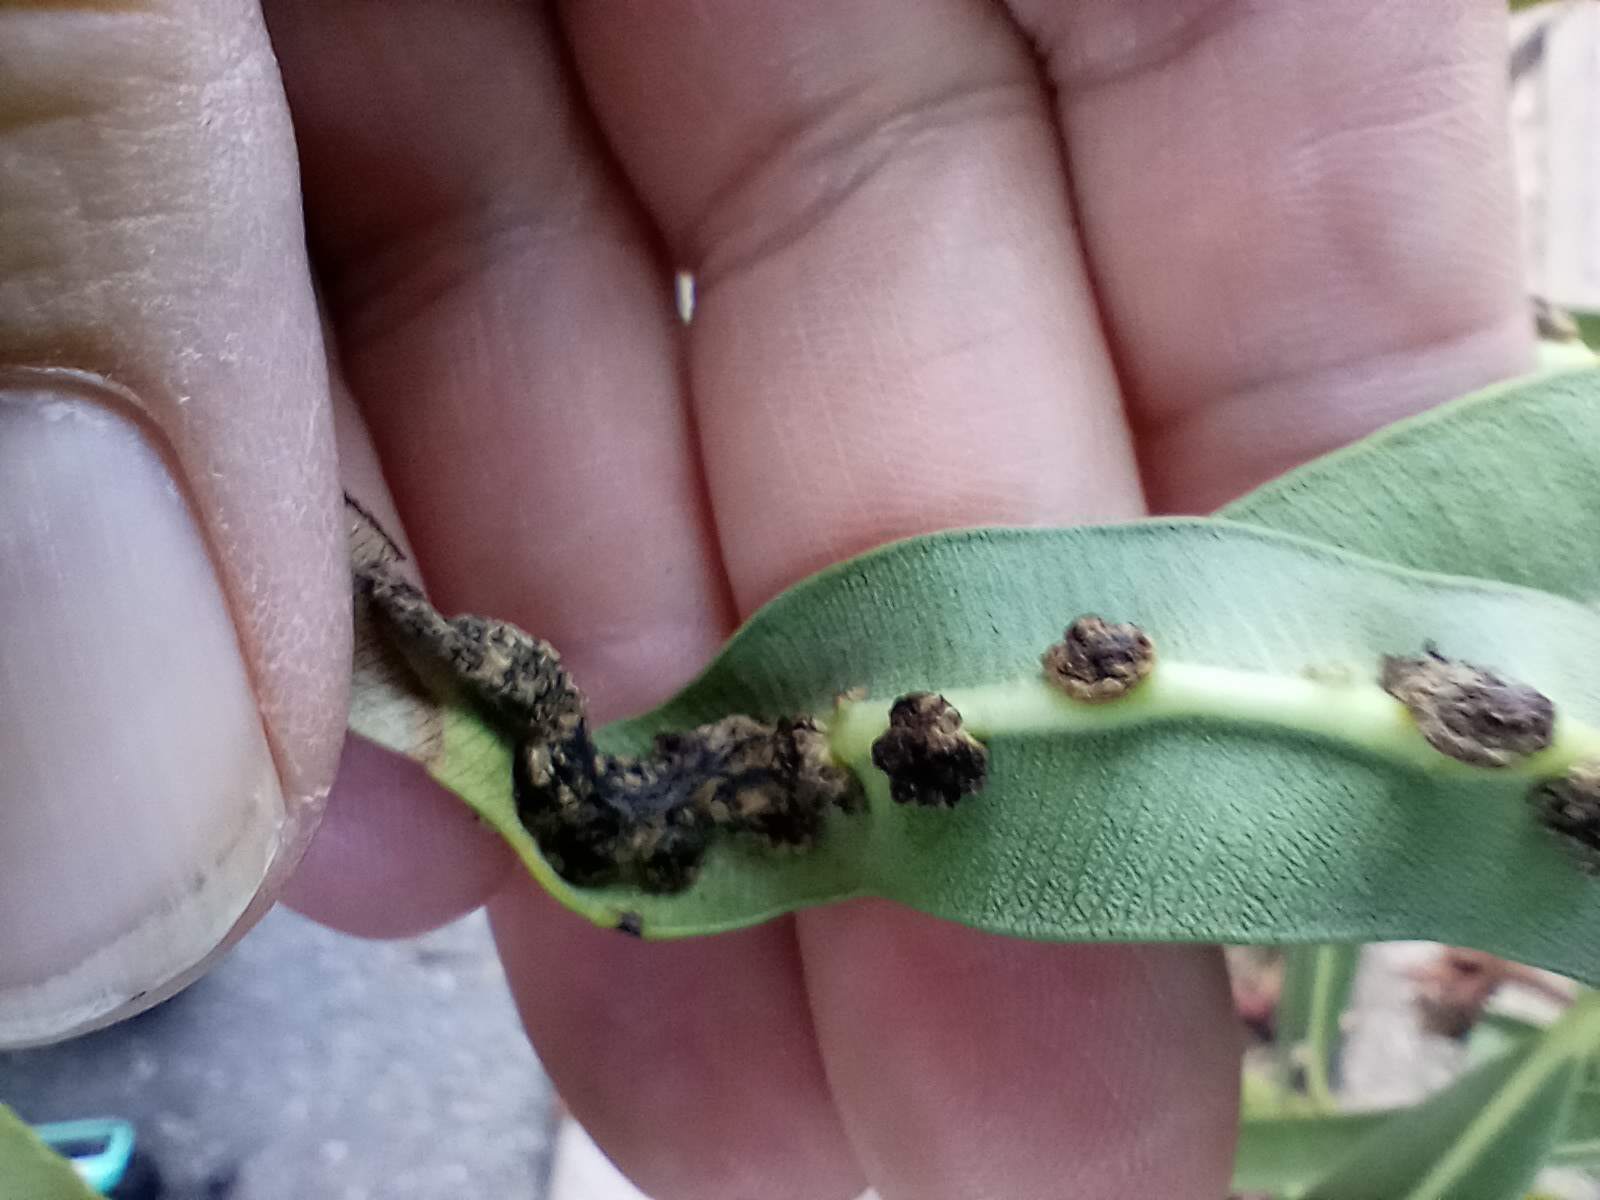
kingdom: Bacteria
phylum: Proteobacteria
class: Gammaproteobacteria
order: Pseudomonadales
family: Pseudomonadaceae
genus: Pseudomonas
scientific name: Pseudomonas
